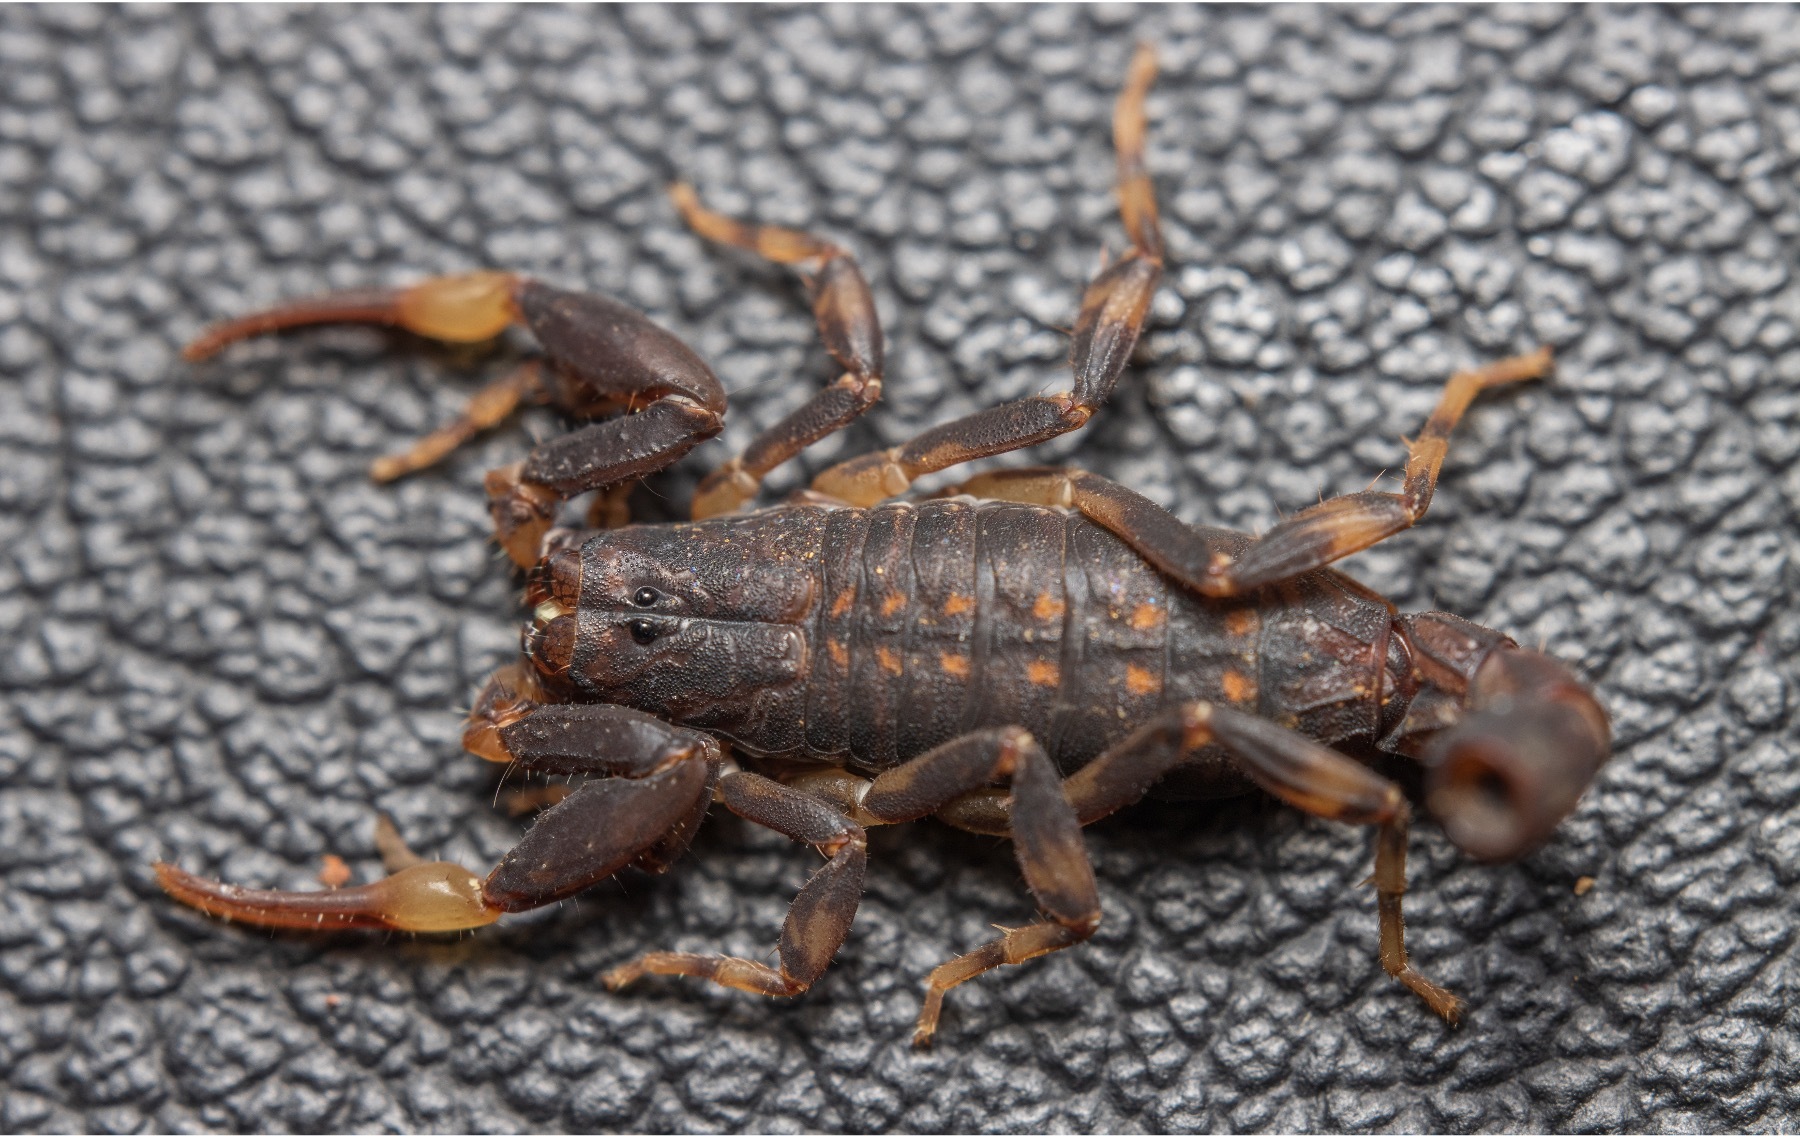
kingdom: Animalia
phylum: Arthropoda
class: Arachnida
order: Scorpiones
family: Buthidae
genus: Ananteris
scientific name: Ananteris platnicki
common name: Scorpions
